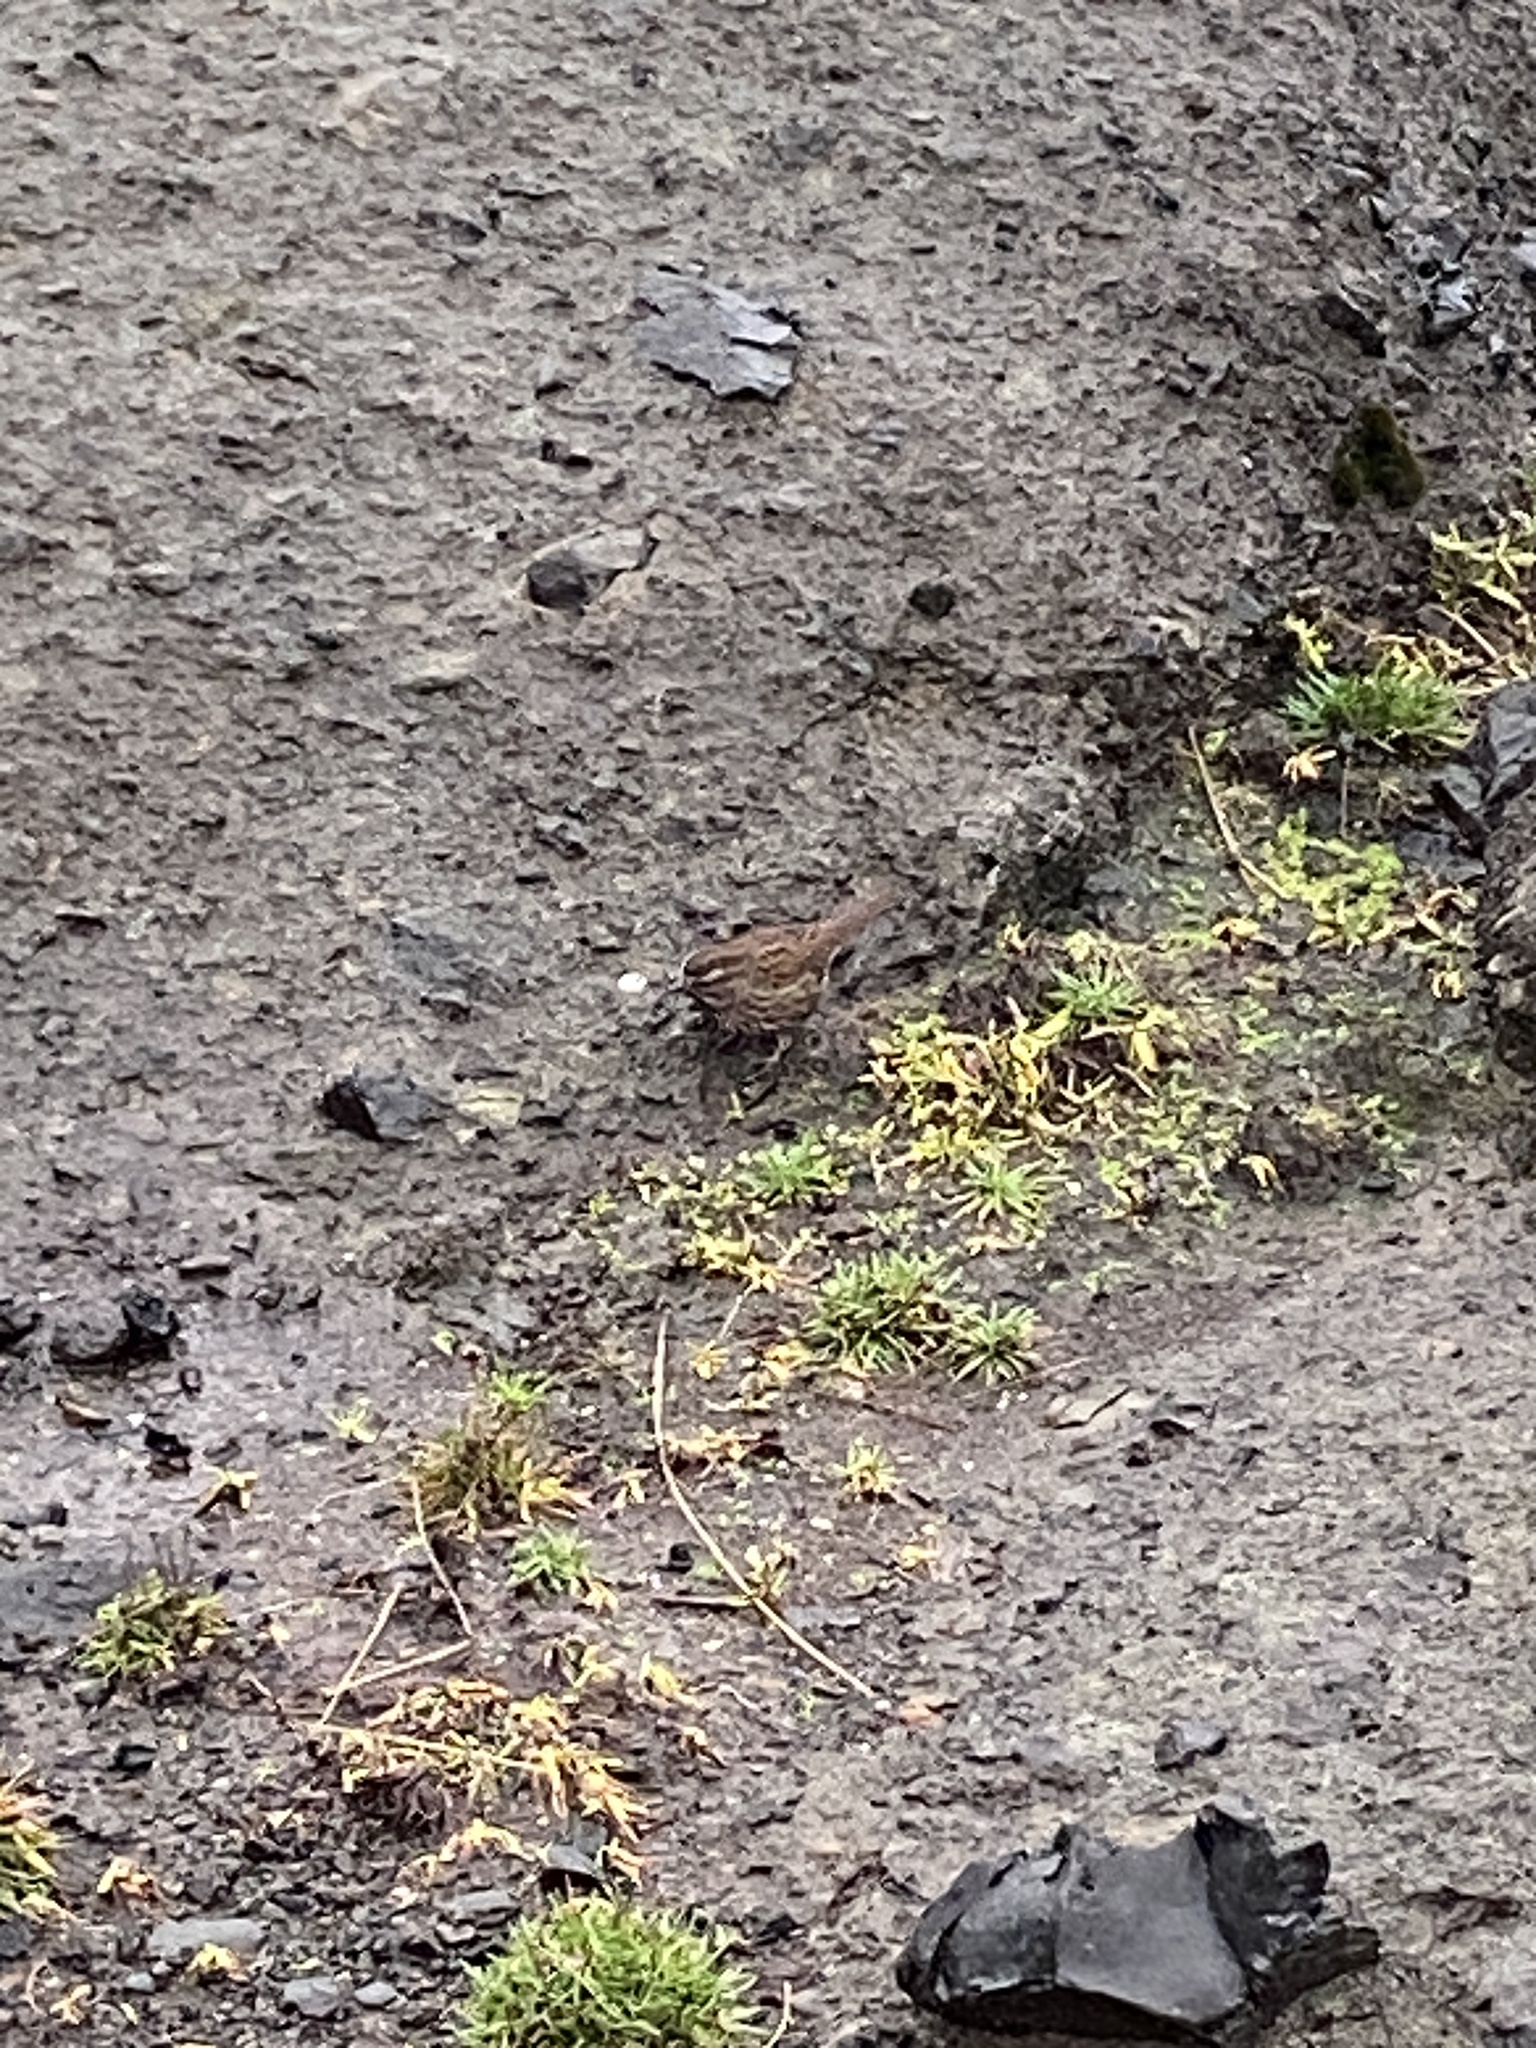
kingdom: Animalia
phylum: Chordata
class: Aves
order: Passeriformes
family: Passerellidae
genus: Melospiza
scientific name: Melospiza melodia
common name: Song sparrow
